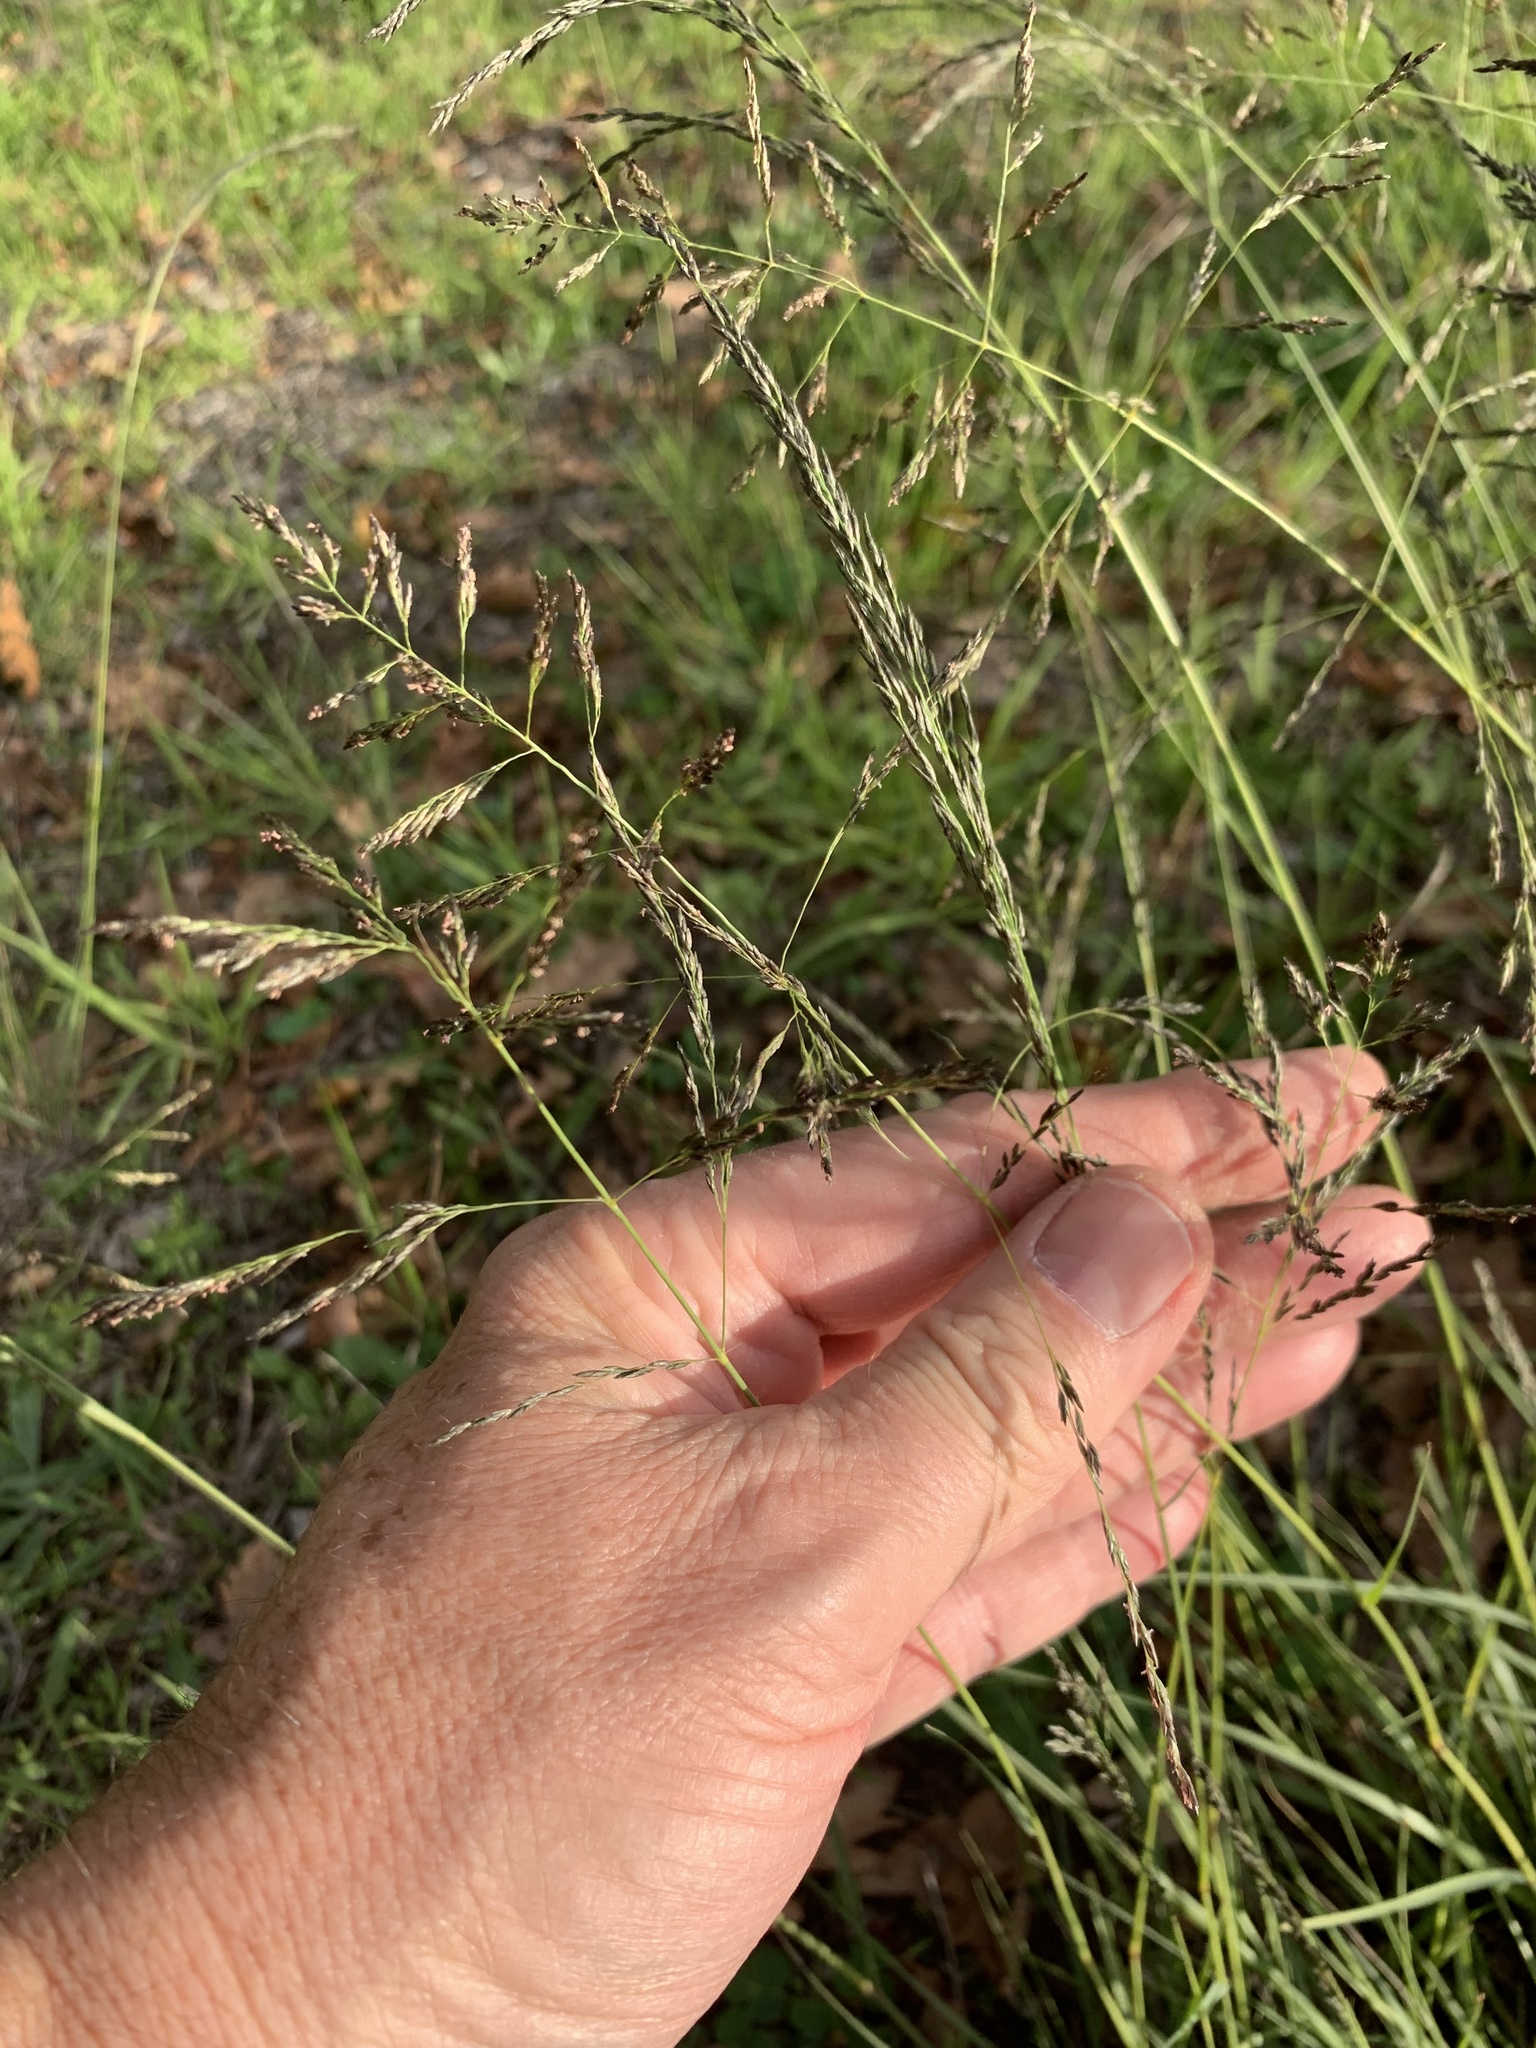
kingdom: Plantae
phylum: Tracheophyta
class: Liliopsida
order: Poales
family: Poaceae
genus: Eragrostis
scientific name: Eragrostis curvula
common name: African love-grass
